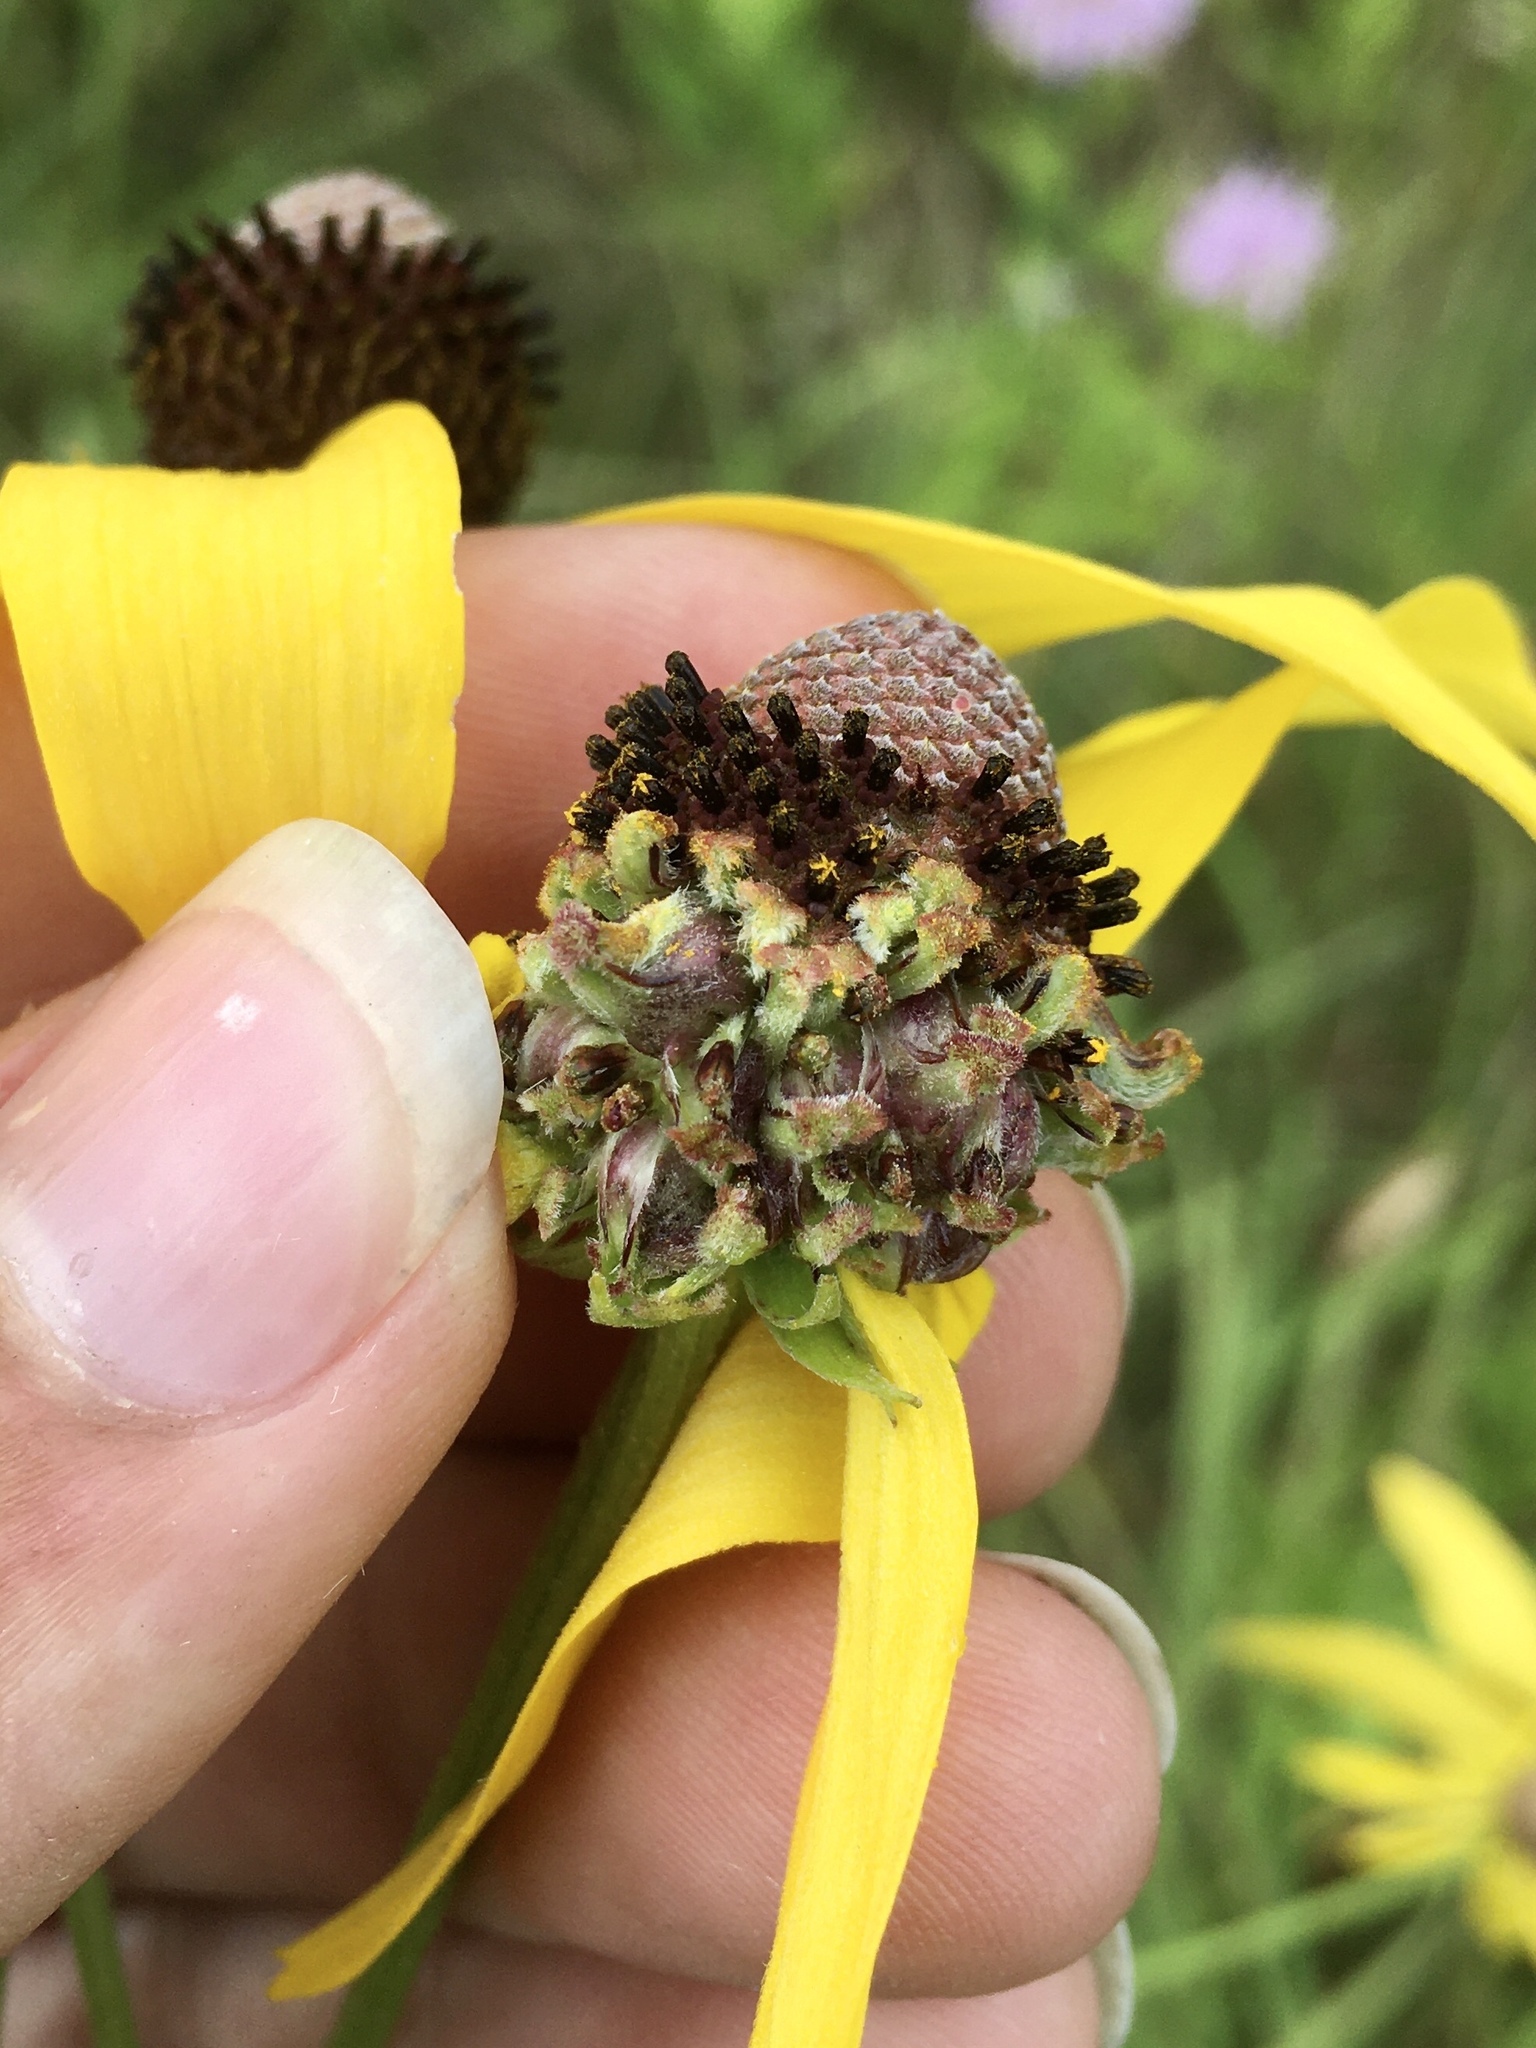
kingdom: Animalia
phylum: Arthropoda
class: Insecta
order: Diptera
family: Cecidomyiidae
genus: Asphondylia
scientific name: Asphondylia ratibidae
